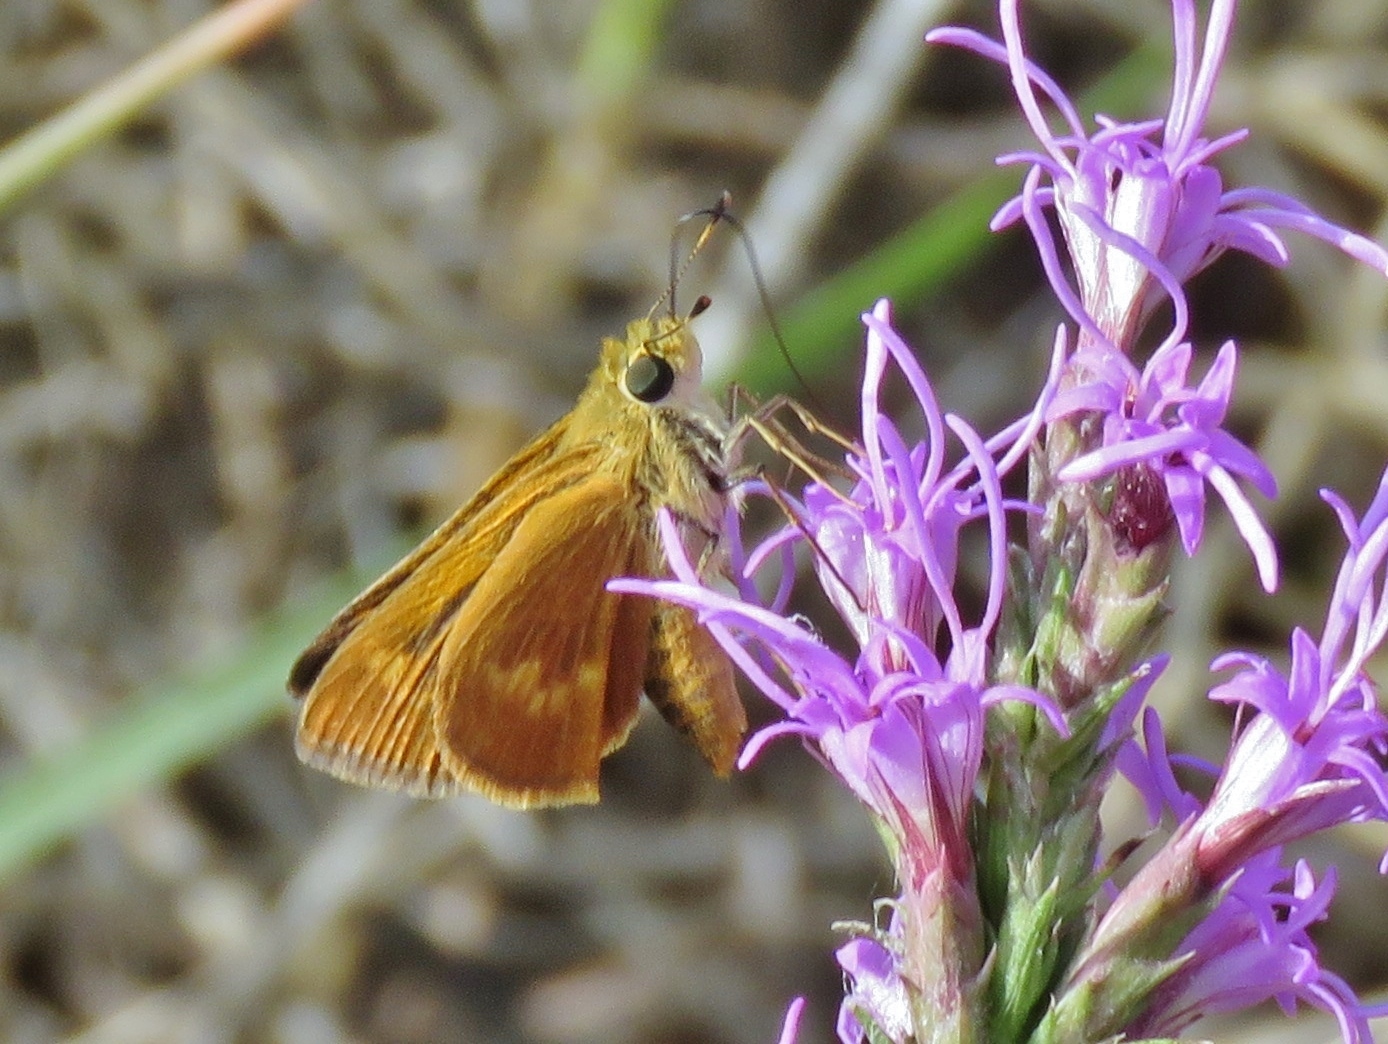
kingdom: Animalia
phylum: Arthropoda
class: Insecta
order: Lepidoptera
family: Hesperiidae
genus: Polites
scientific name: Polites otho
